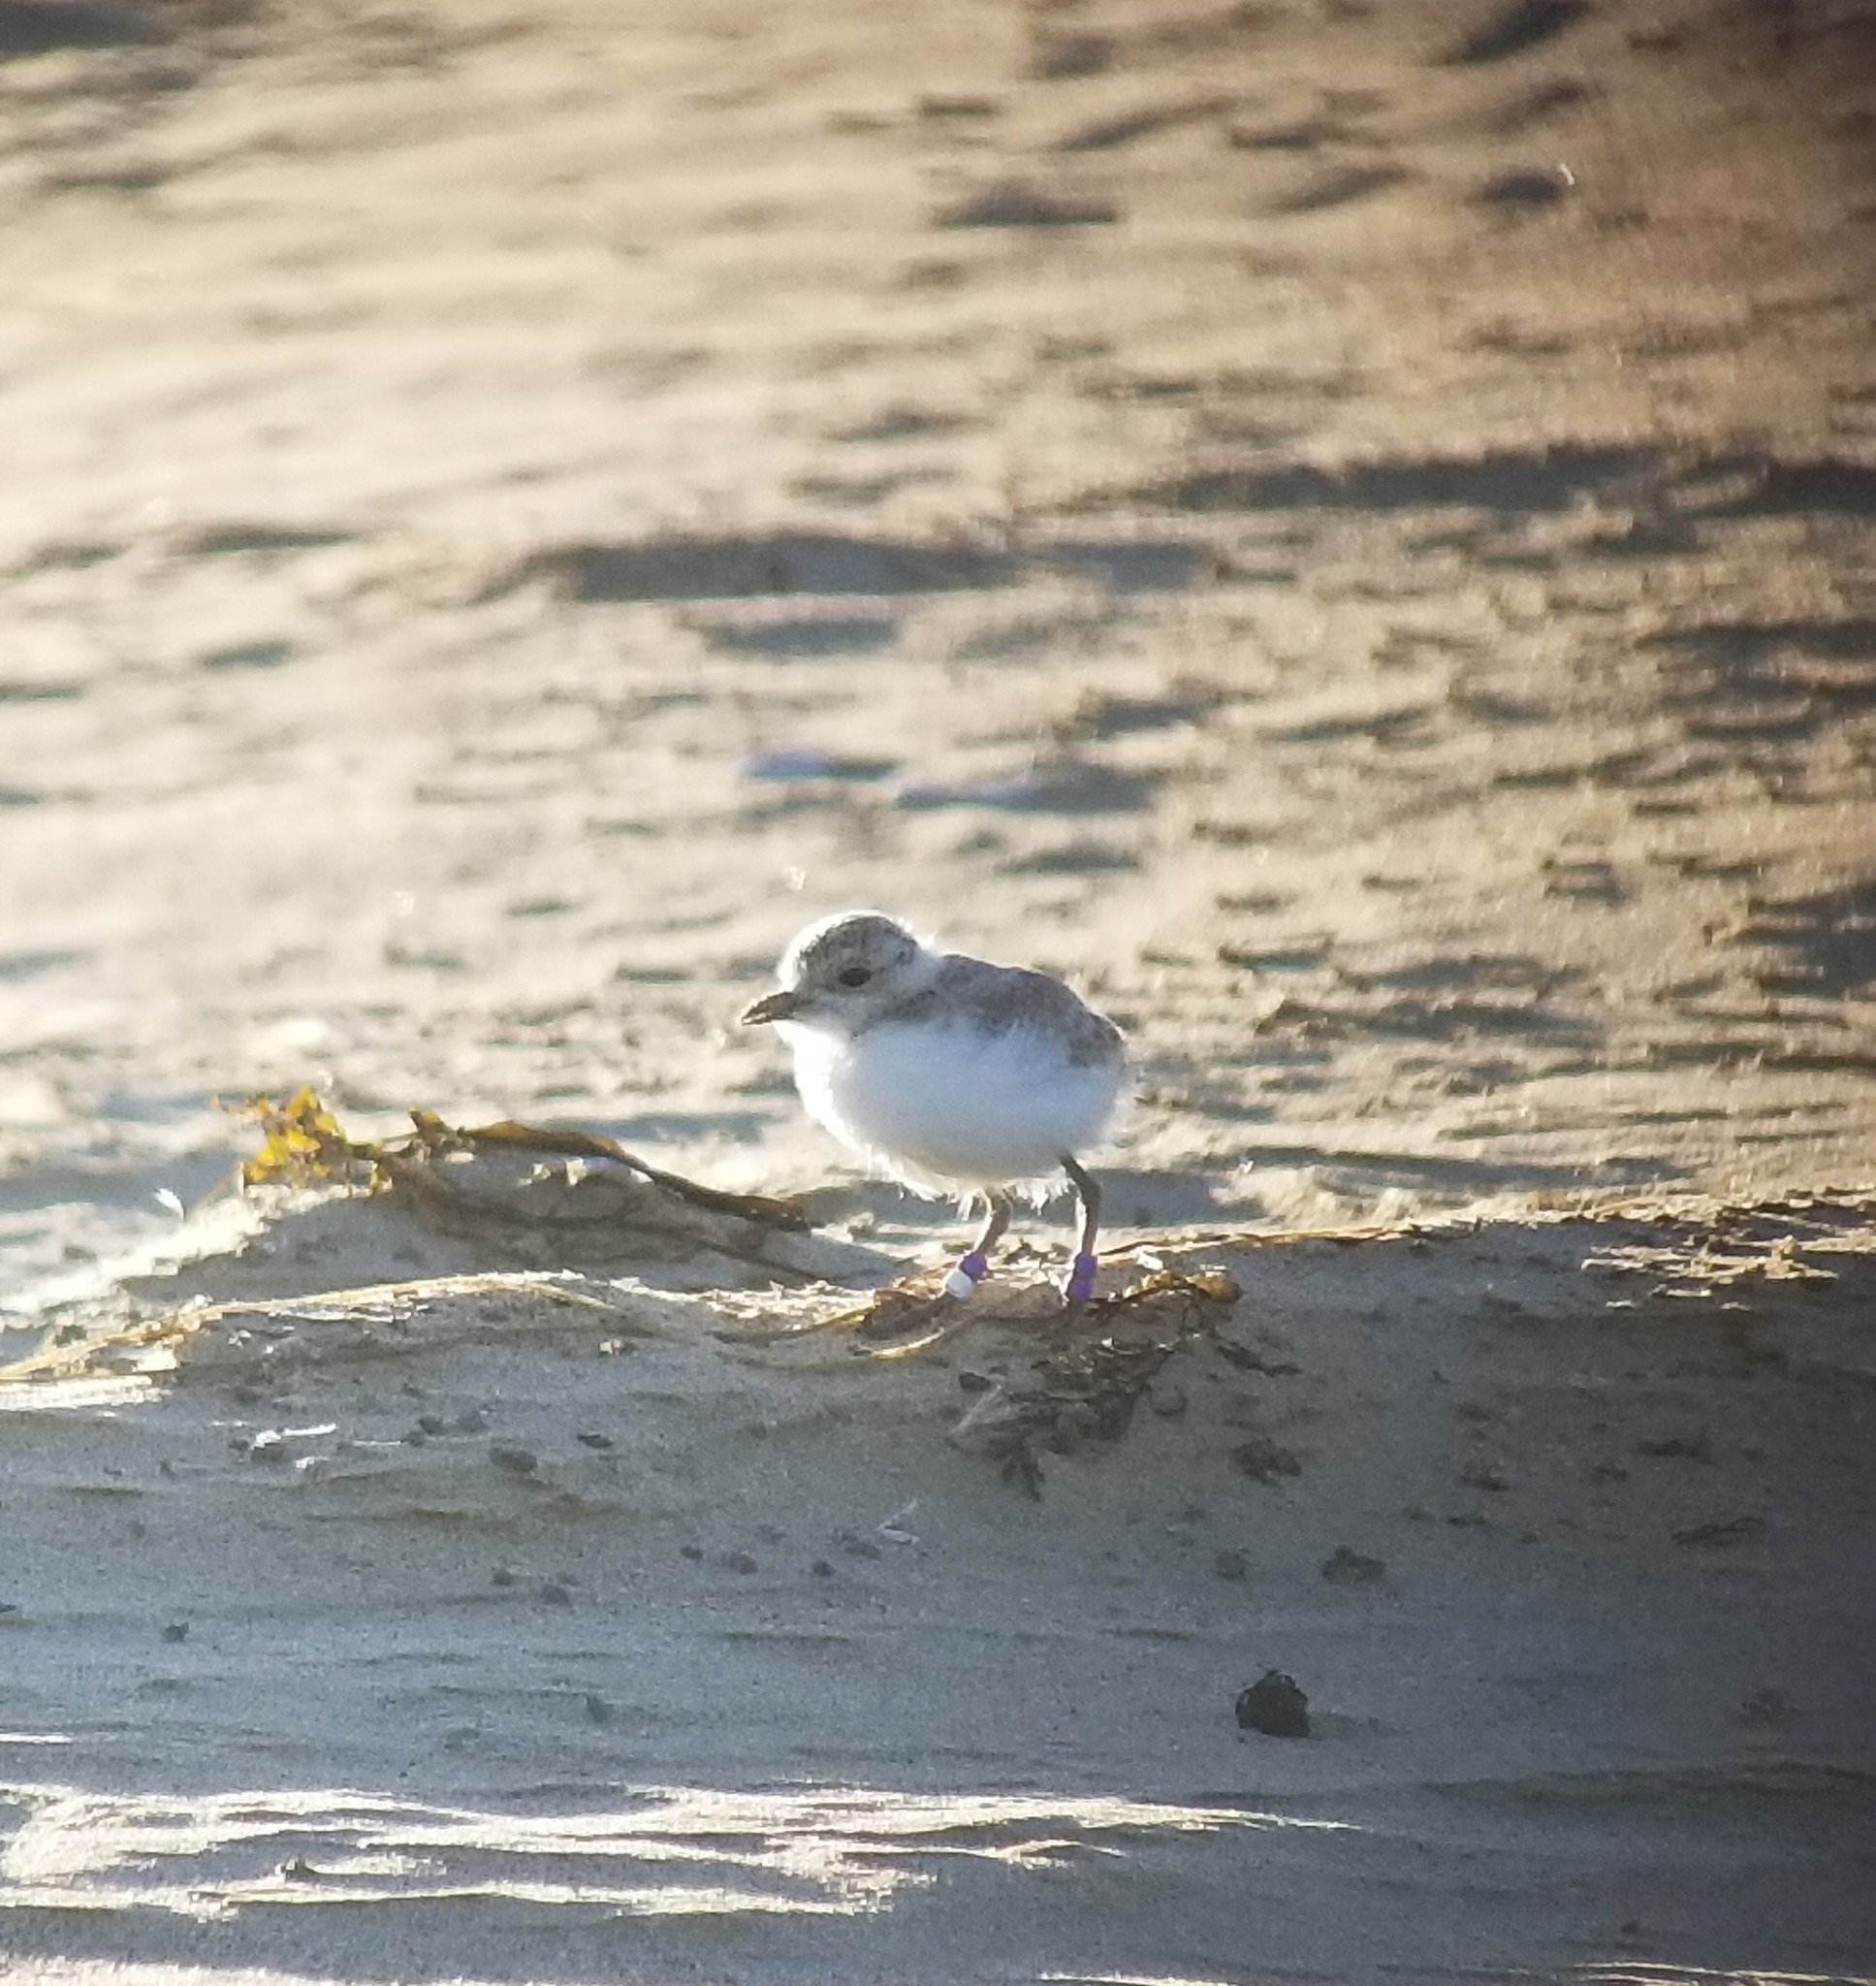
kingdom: Animalia
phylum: Chordata
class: Aves
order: Charadriiformes
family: Charadriidae
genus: Anarhynchus
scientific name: Anarhynchus
